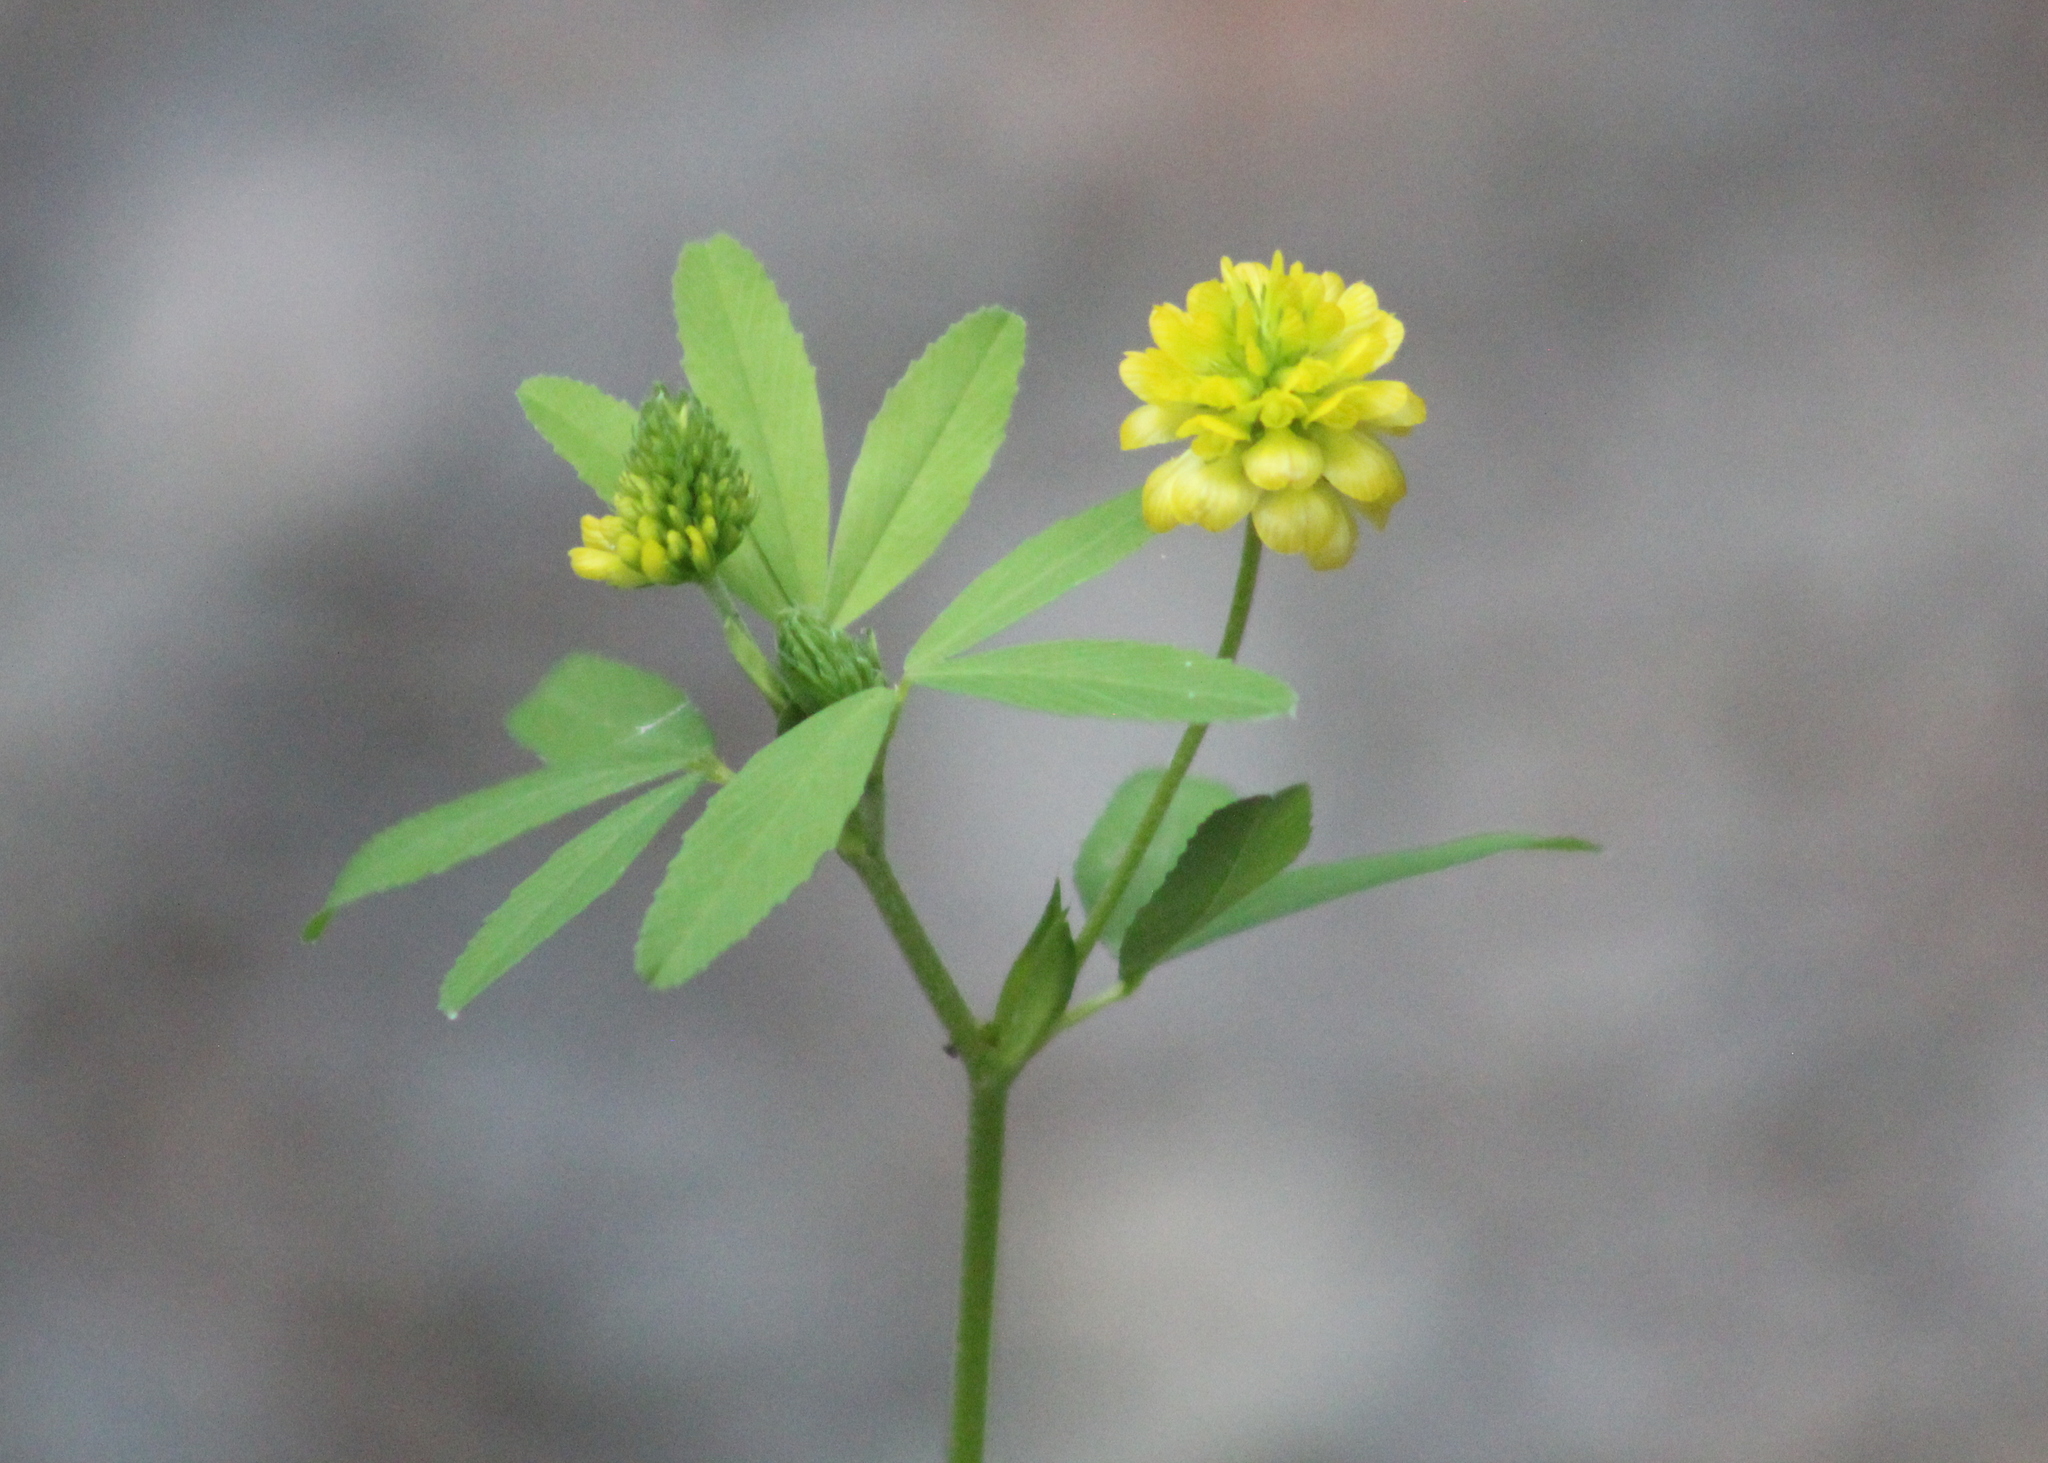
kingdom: Plantae
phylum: Tracheophyta
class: Magnoliopsida
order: Fabales
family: Fabaceae
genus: Trifolium
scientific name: Trifolium aureum
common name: Golden clover
